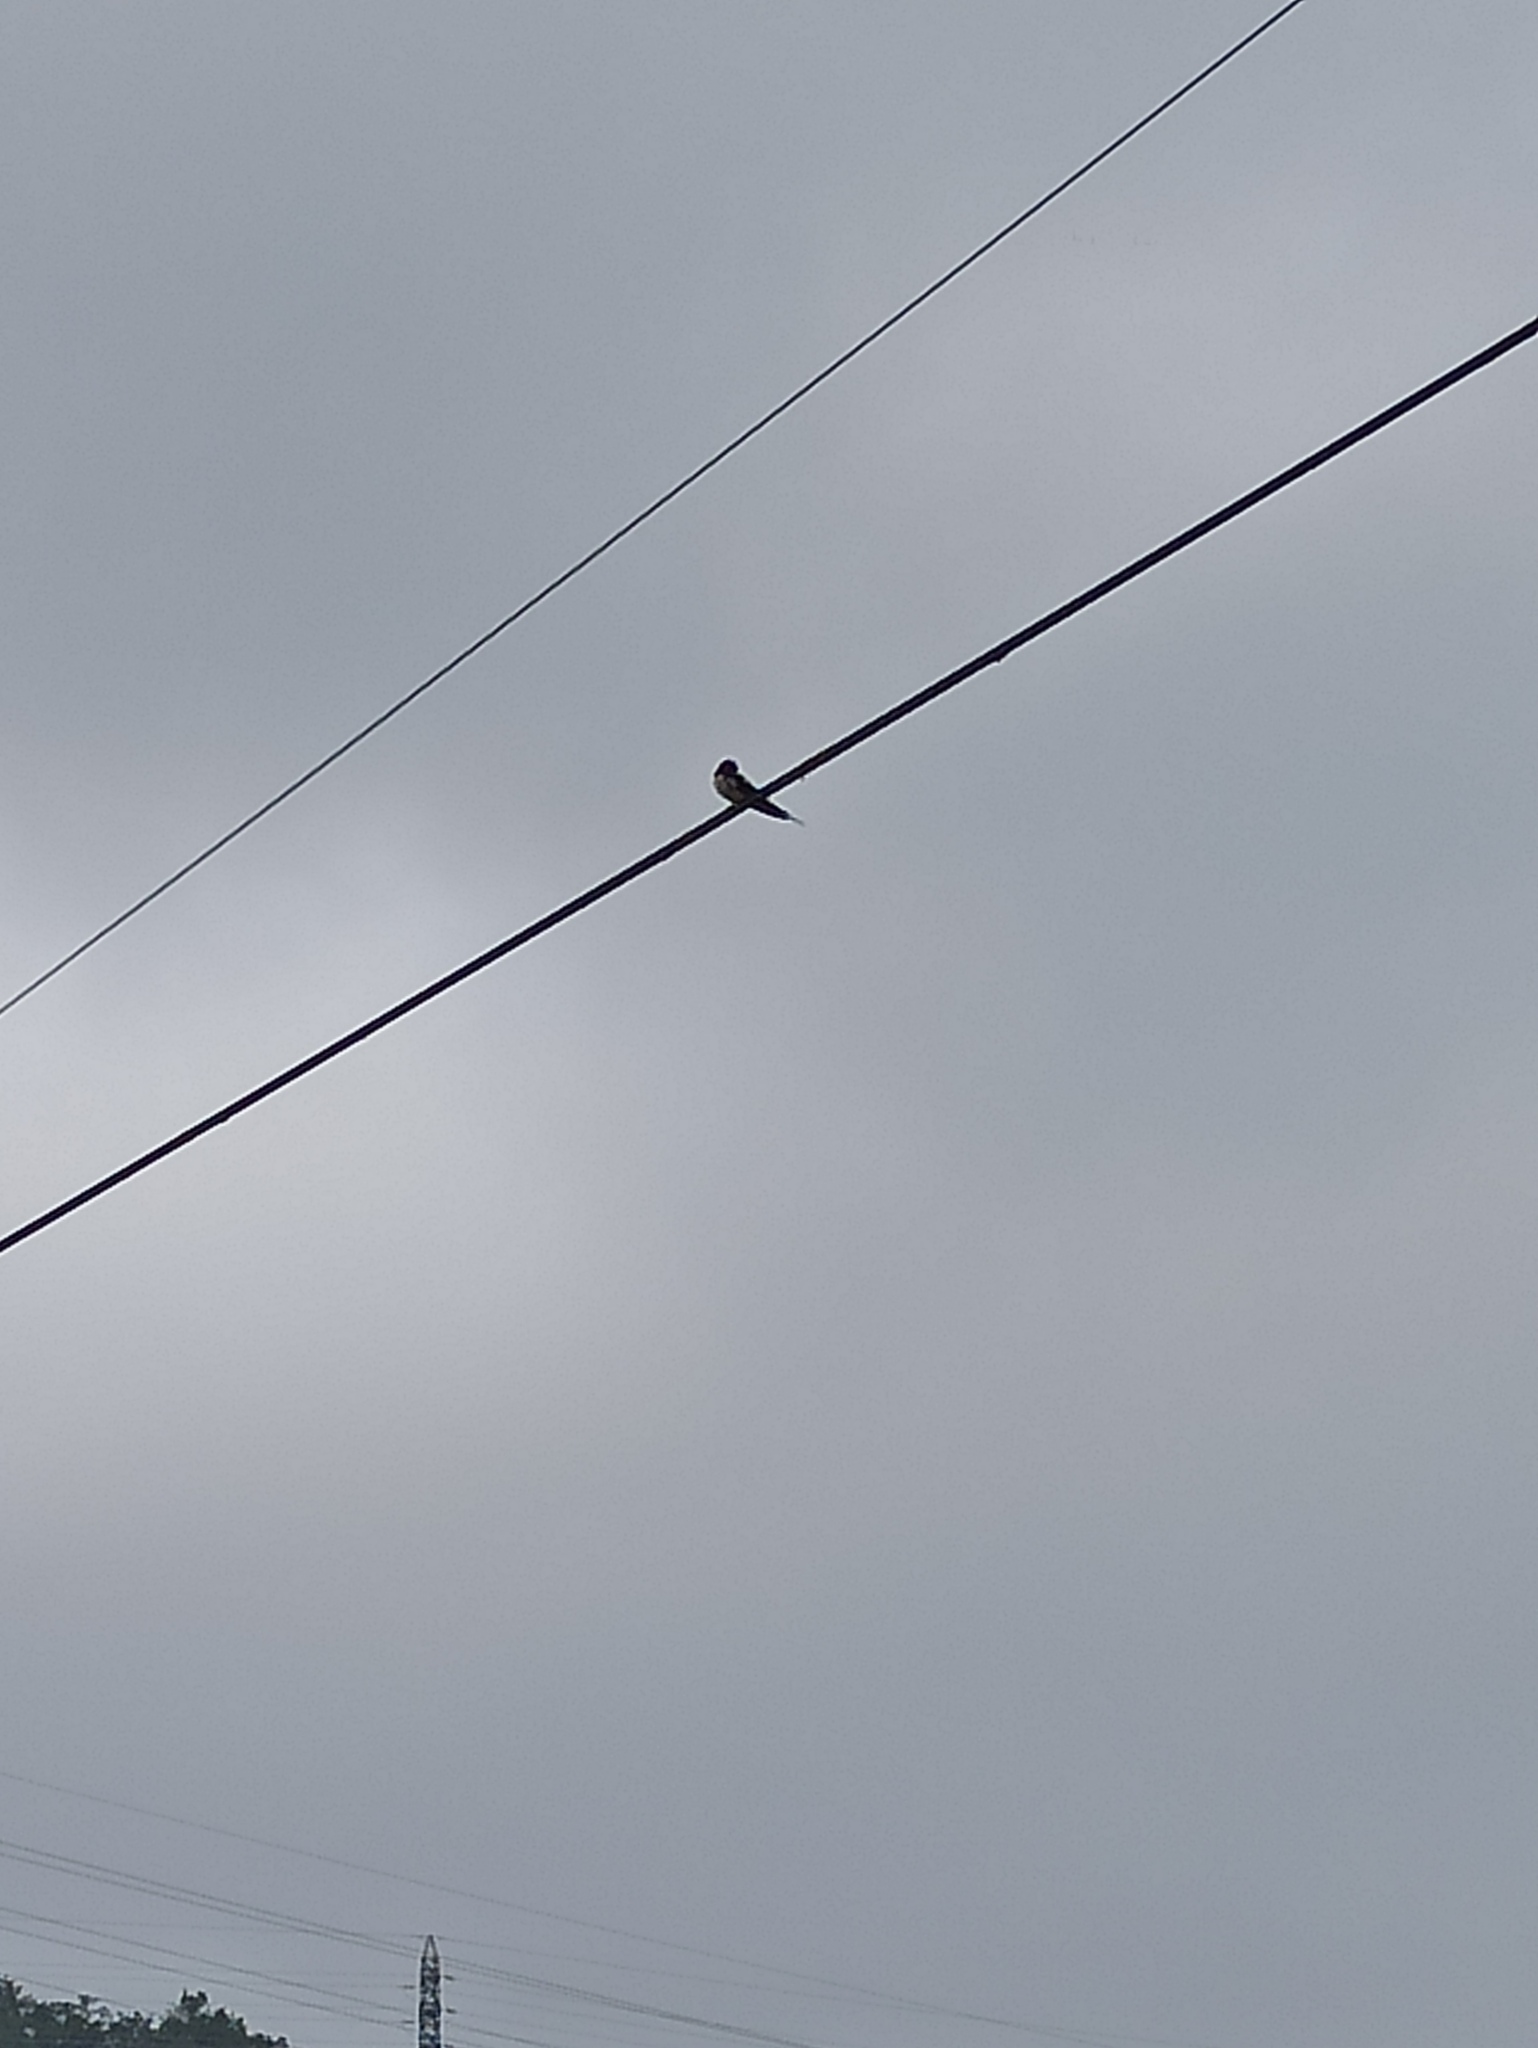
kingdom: Animalia
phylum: Chordata
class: Aves
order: Passeriformes
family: Hirundinidae
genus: Hirundo
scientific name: Hirundo rustica
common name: Barn swallow
